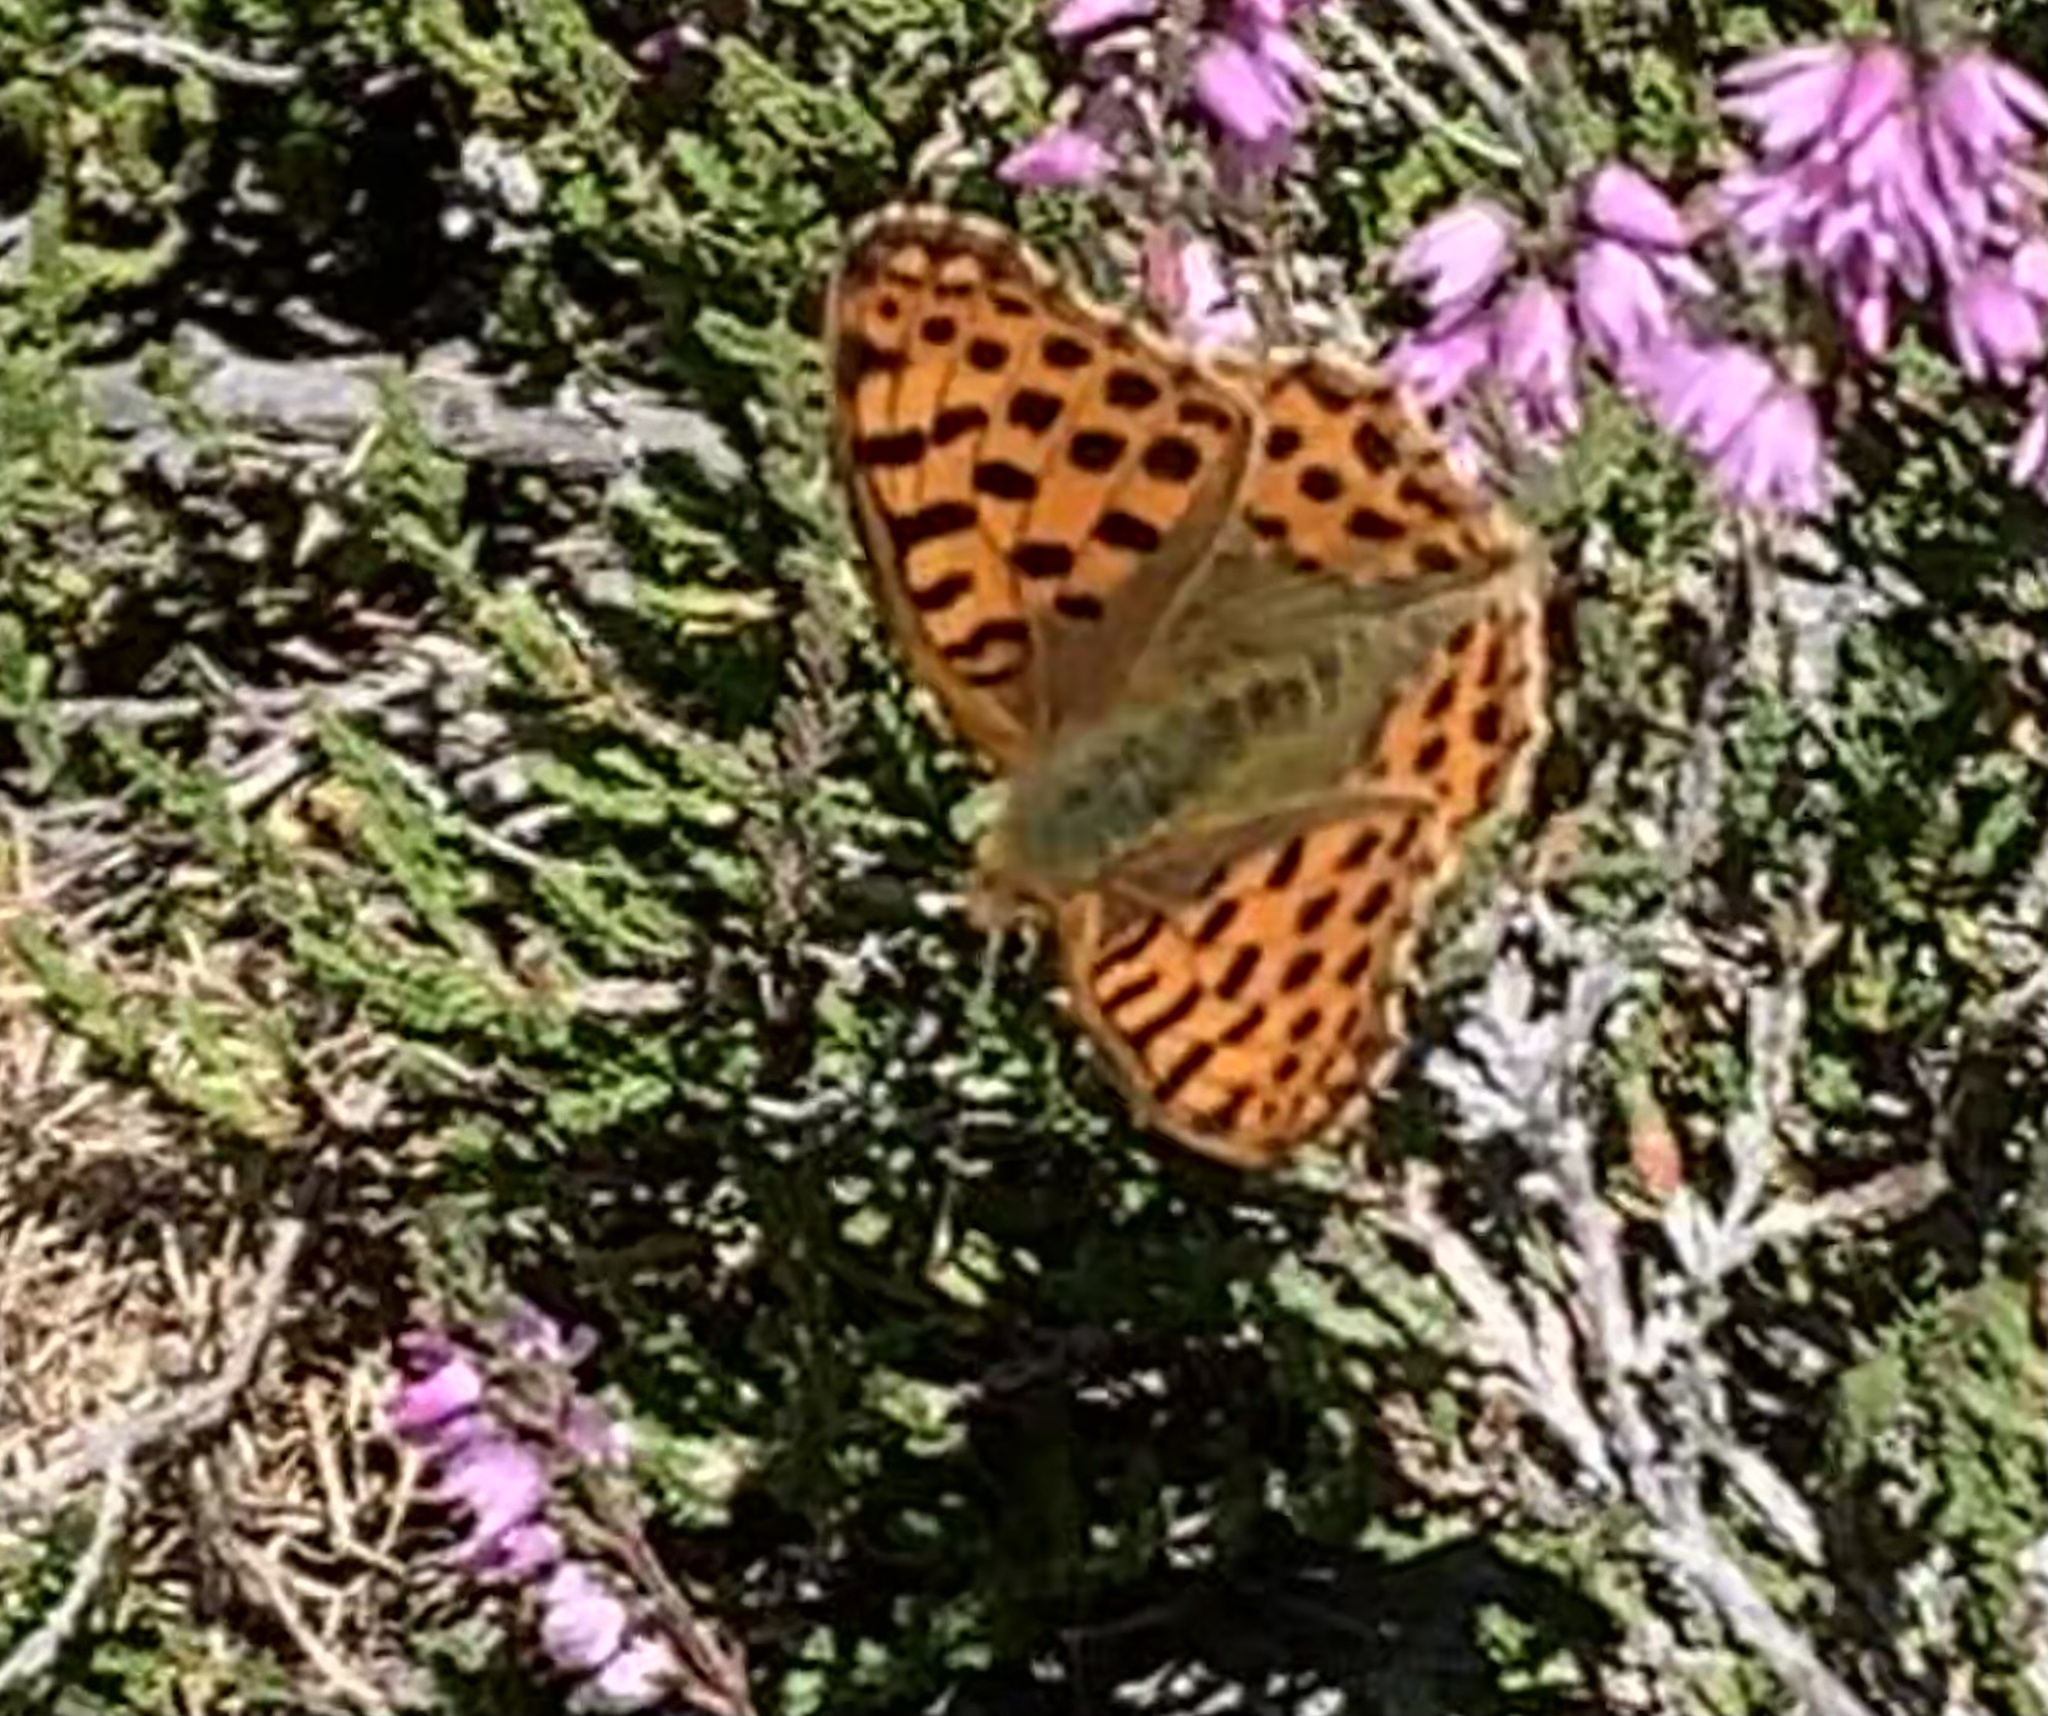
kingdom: Animalia
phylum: Arthropoda
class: Insecta
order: Lepidoptera
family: Nymphalidae
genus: Issoria
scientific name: Issoria lathonia
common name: Queen of spain fritillary
